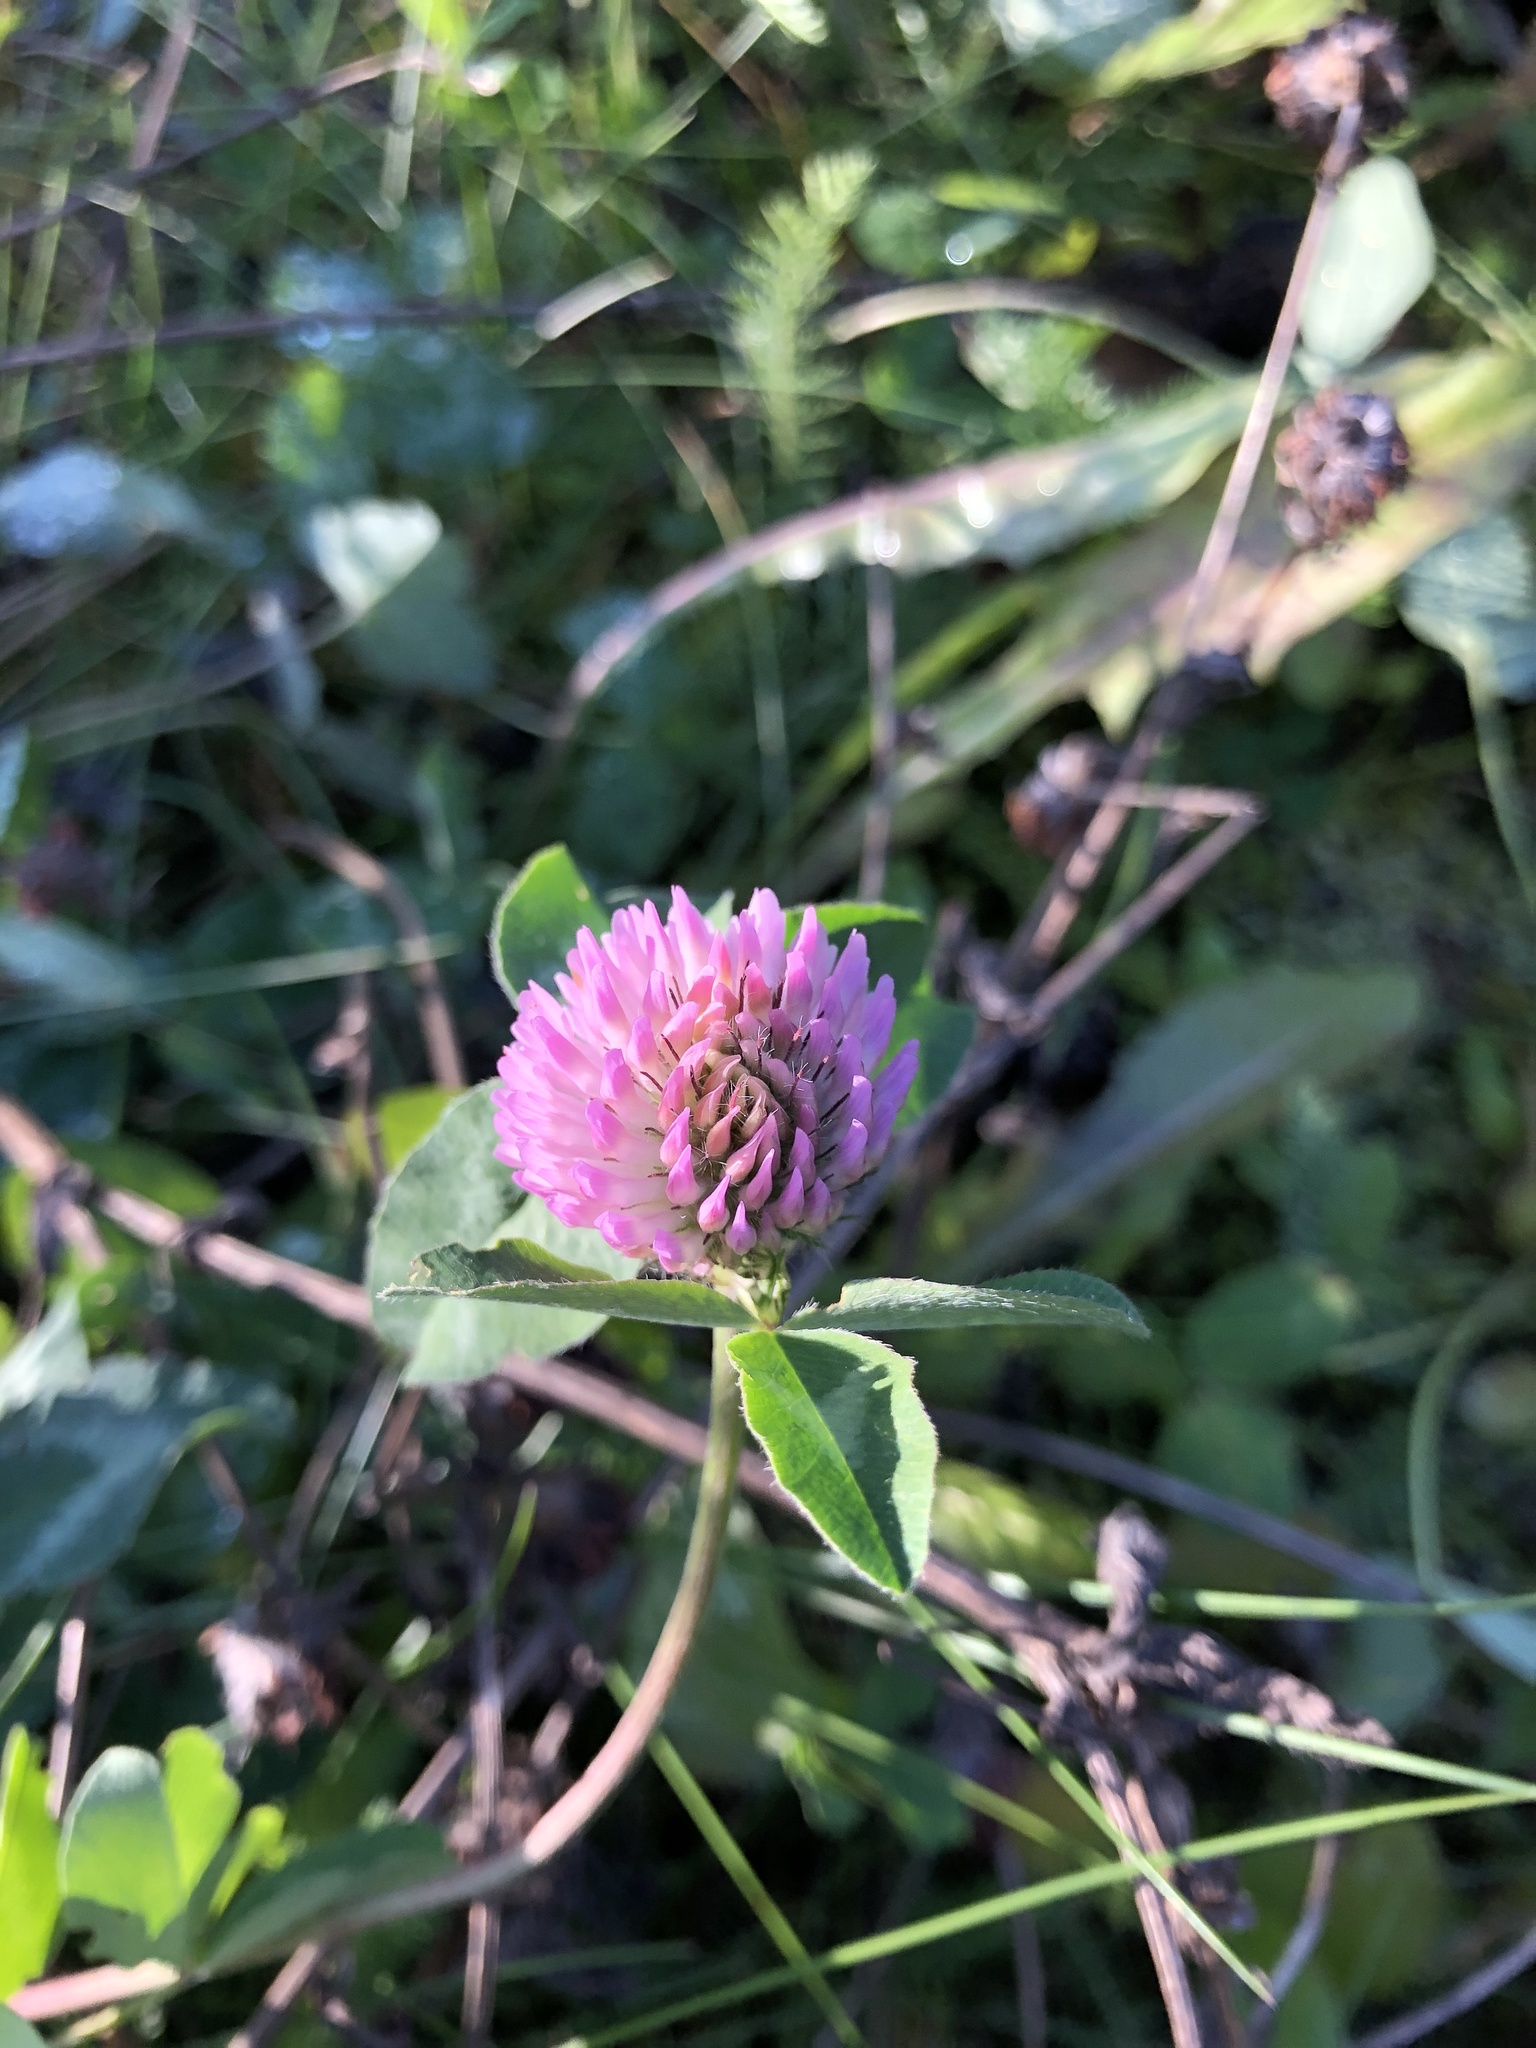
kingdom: Plantae
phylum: Tracheophyta
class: Magnoliopsida
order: Fabales
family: Fabaceae
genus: Trifolium
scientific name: Trifolium pratense
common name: Red clover
